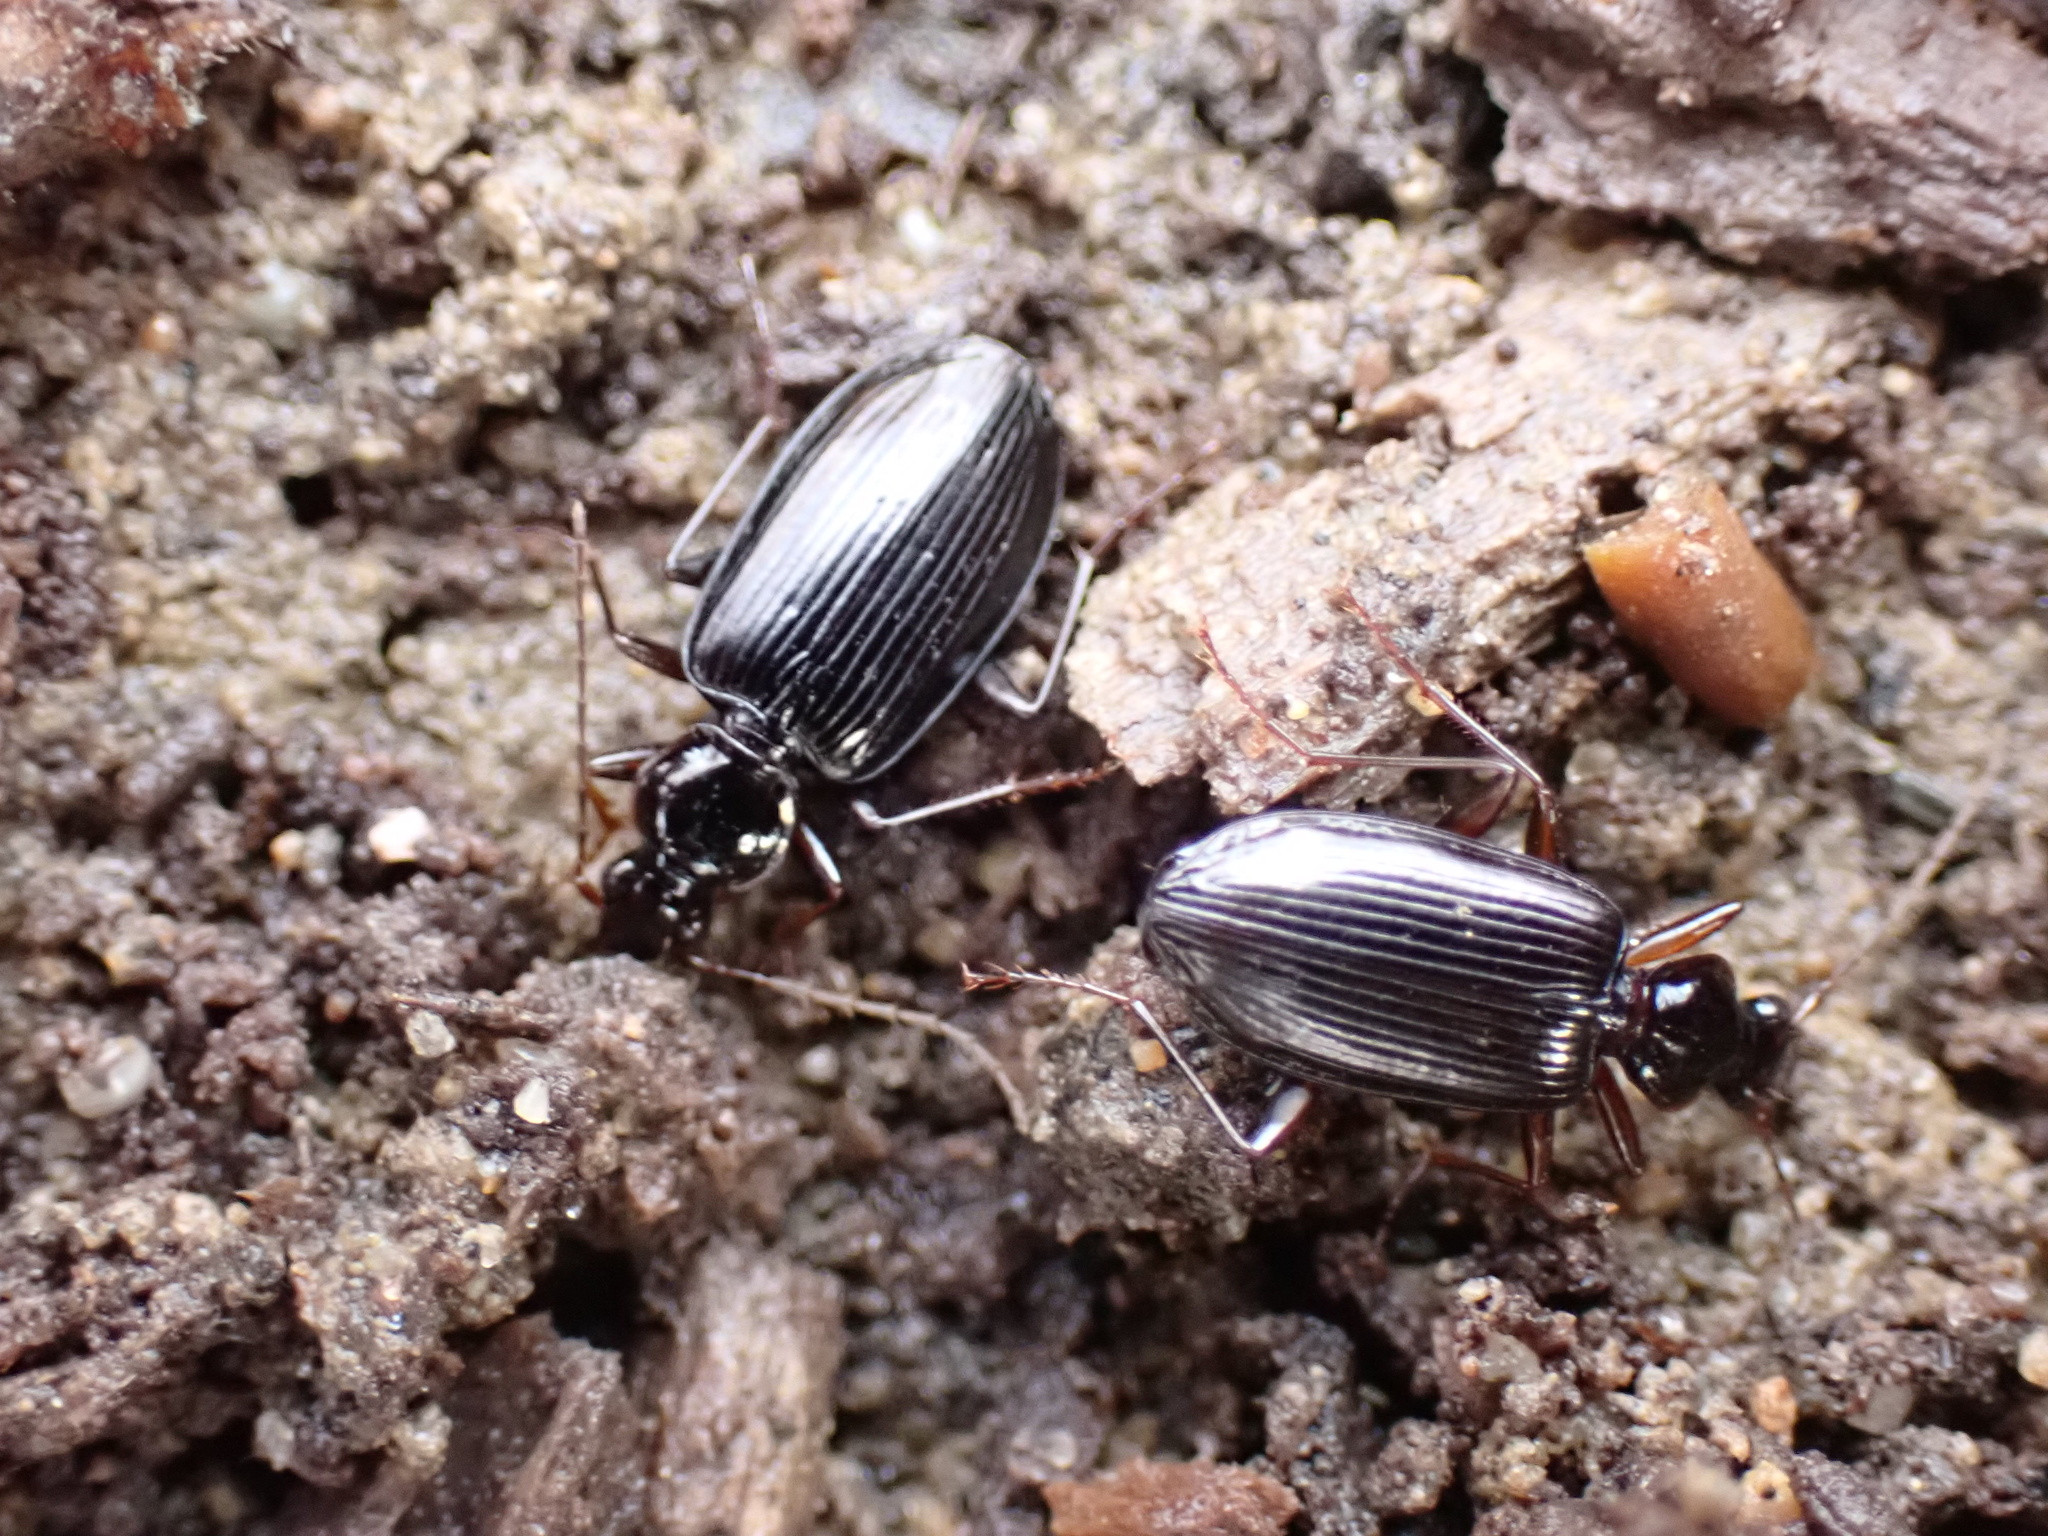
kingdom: Animalia
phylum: Arthropoda
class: Insecta
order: Coleoptera
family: Carabidae
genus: Platynus
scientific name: Platynus cincticollis
